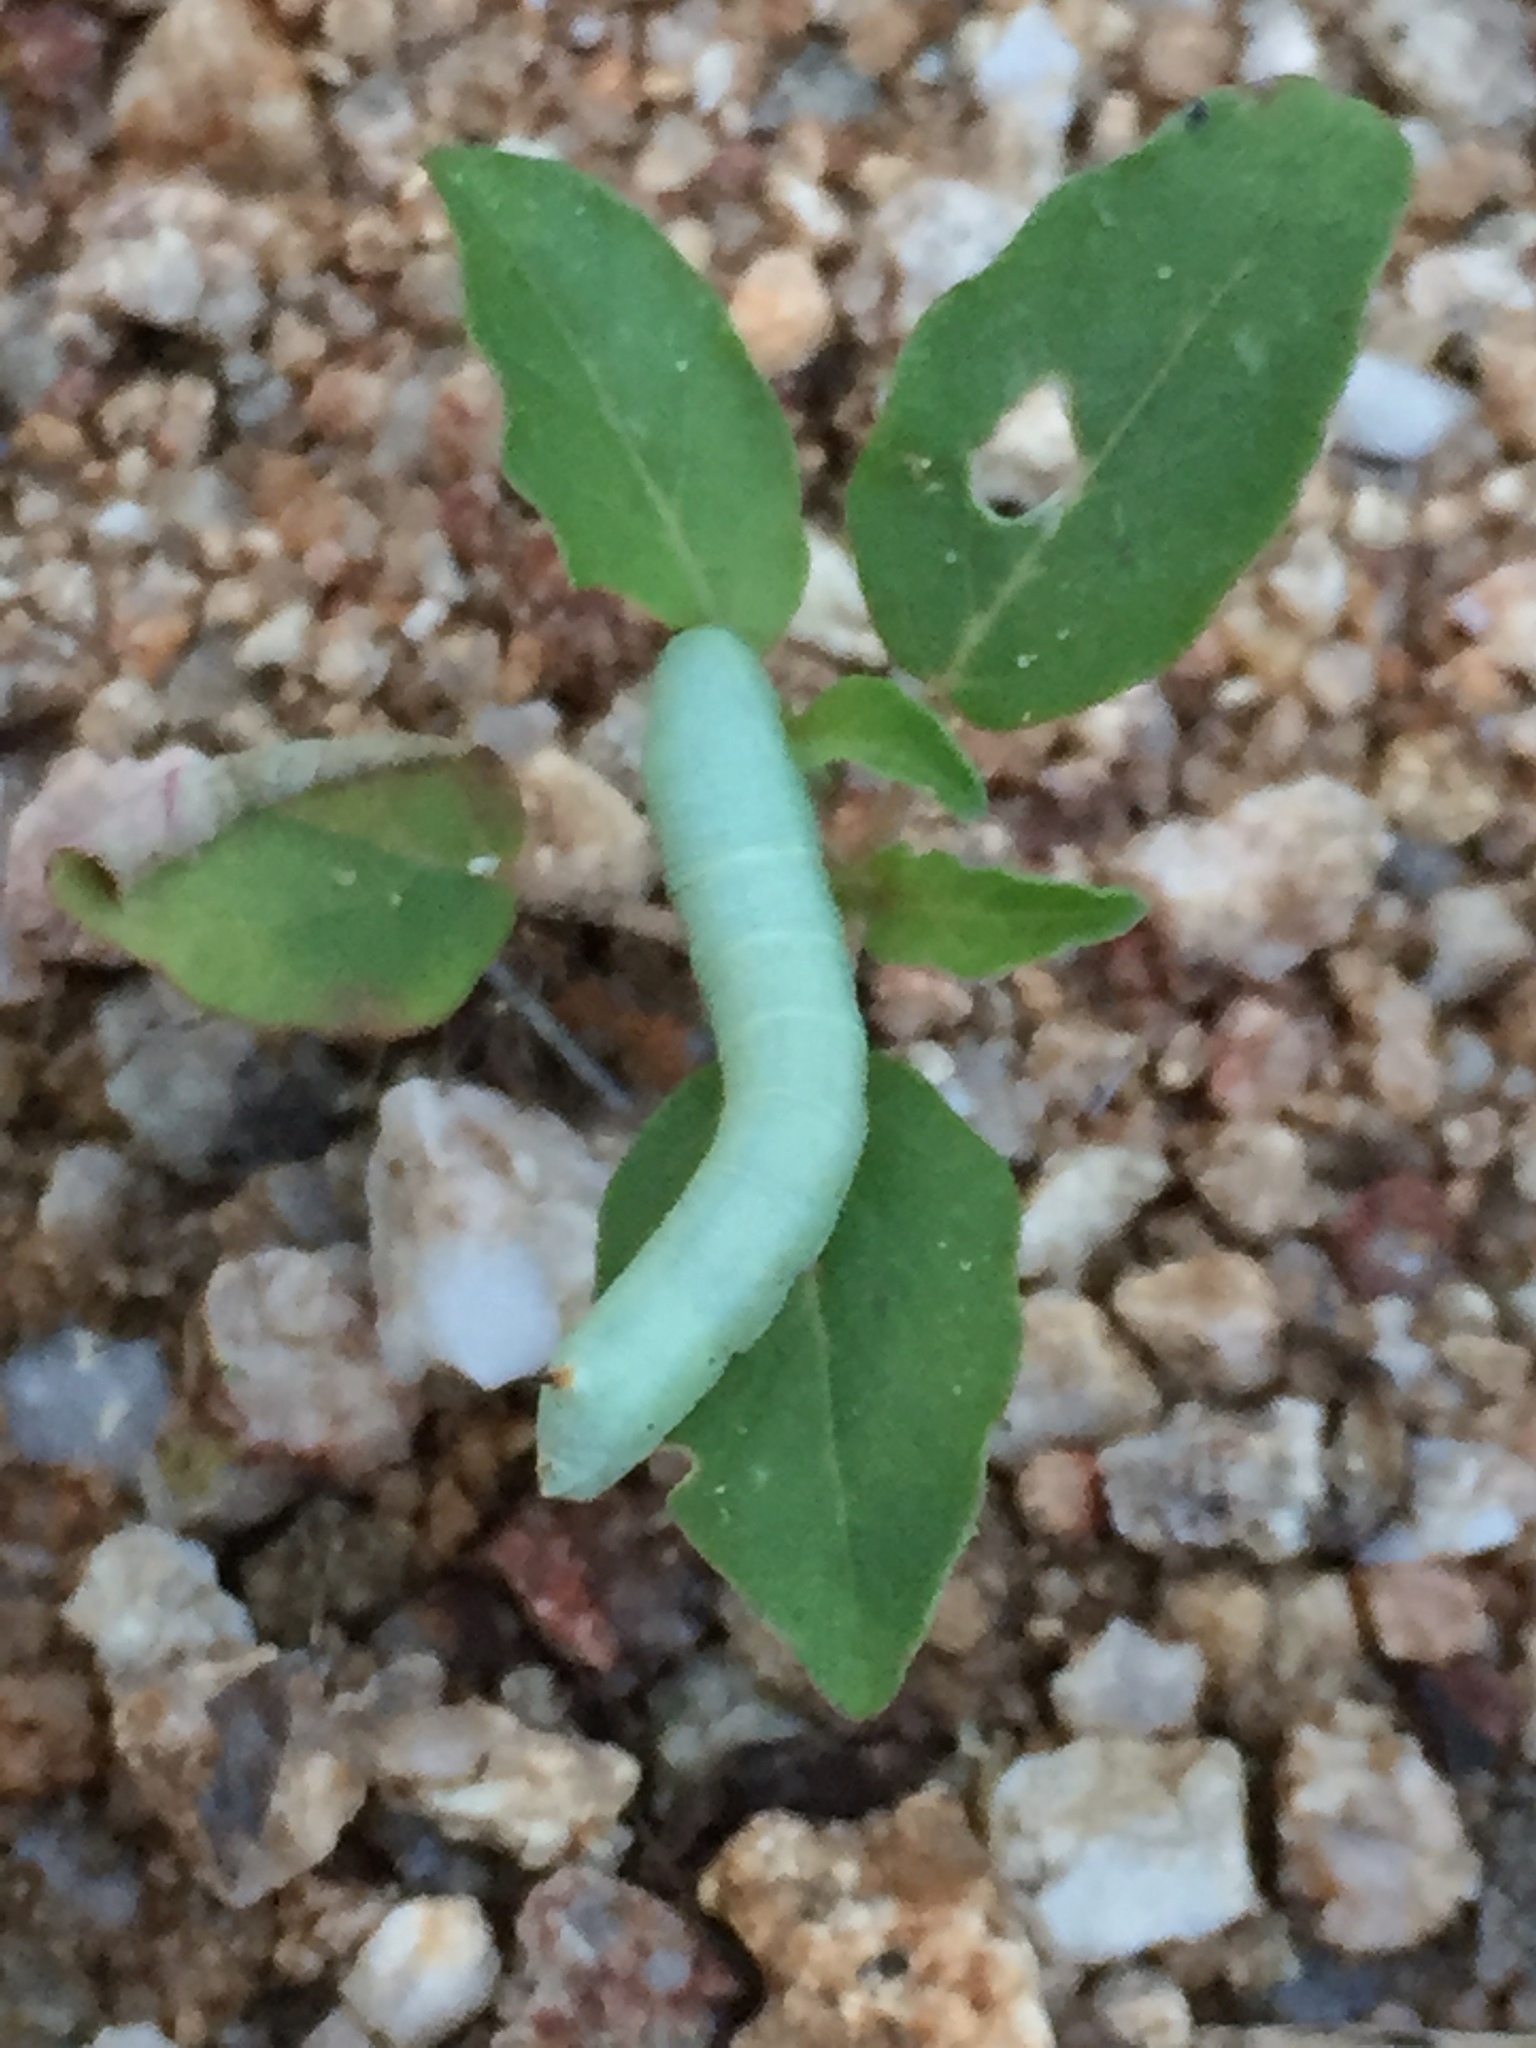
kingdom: Animalia
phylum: Arthropoda
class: Insecta
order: Lepidoptera
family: Sphingidae
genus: Proserpinus
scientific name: Proserpinus terlooii
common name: Terloo's sphinx
